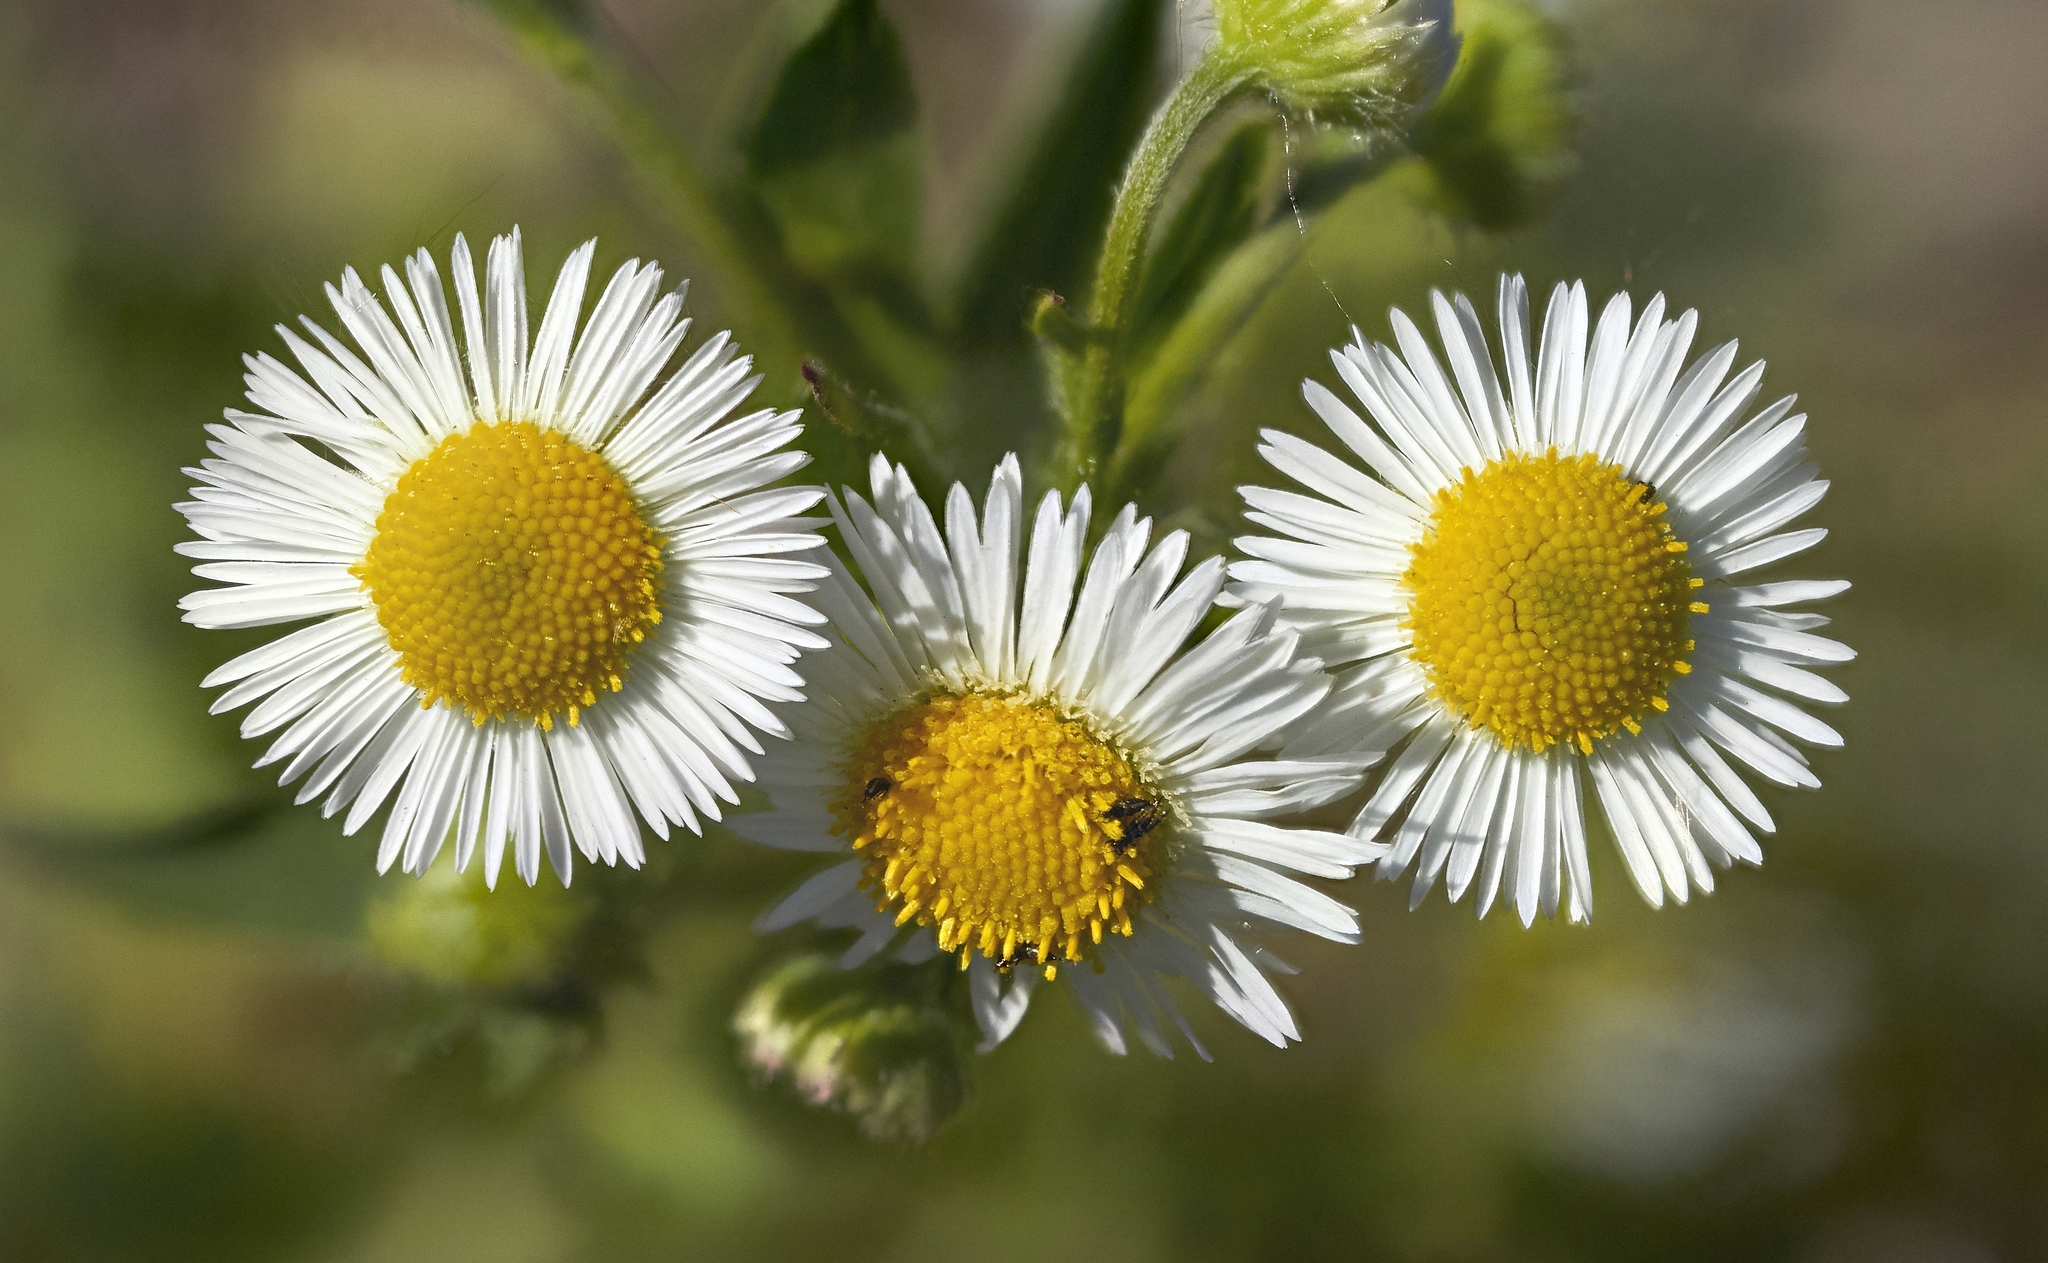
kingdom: Plantae
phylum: Tracheophyta
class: Magnoliopsida
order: Asterales
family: Asteraceae
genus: Erigeron
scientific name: Erigeron
